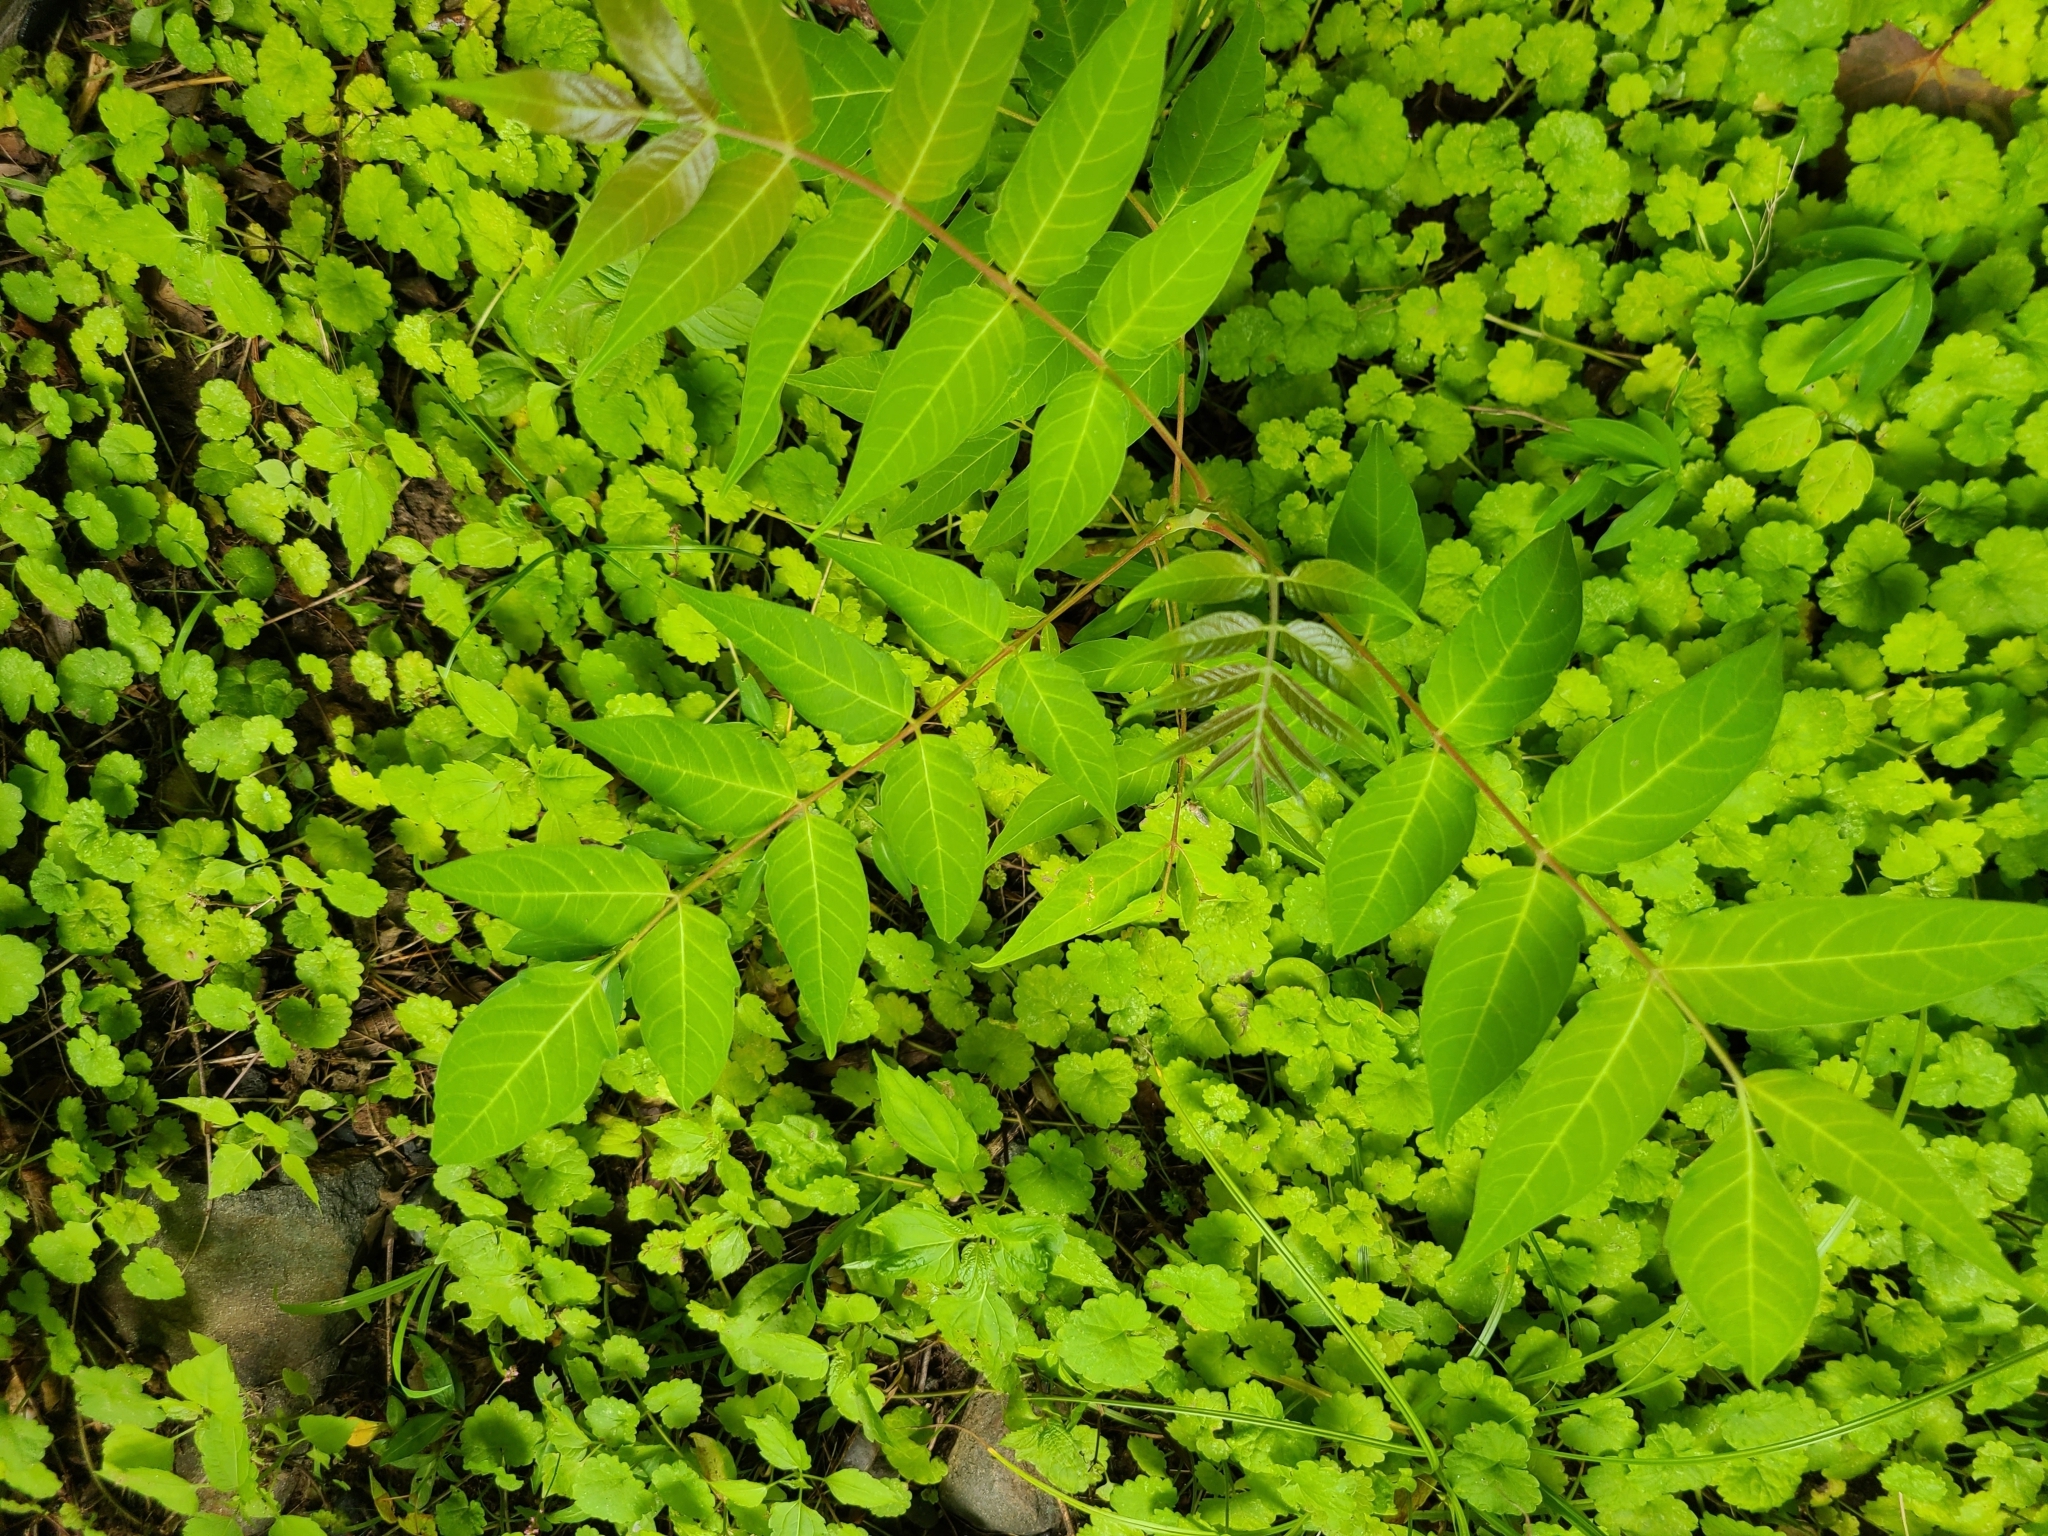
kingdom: Plantae
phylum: Tracheophyta
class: Magnoliopsida
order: Sapindales
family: Simaroubaceae
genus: Ailanthus
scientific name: Ailanthus altissima
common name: Tree-of-heaven
